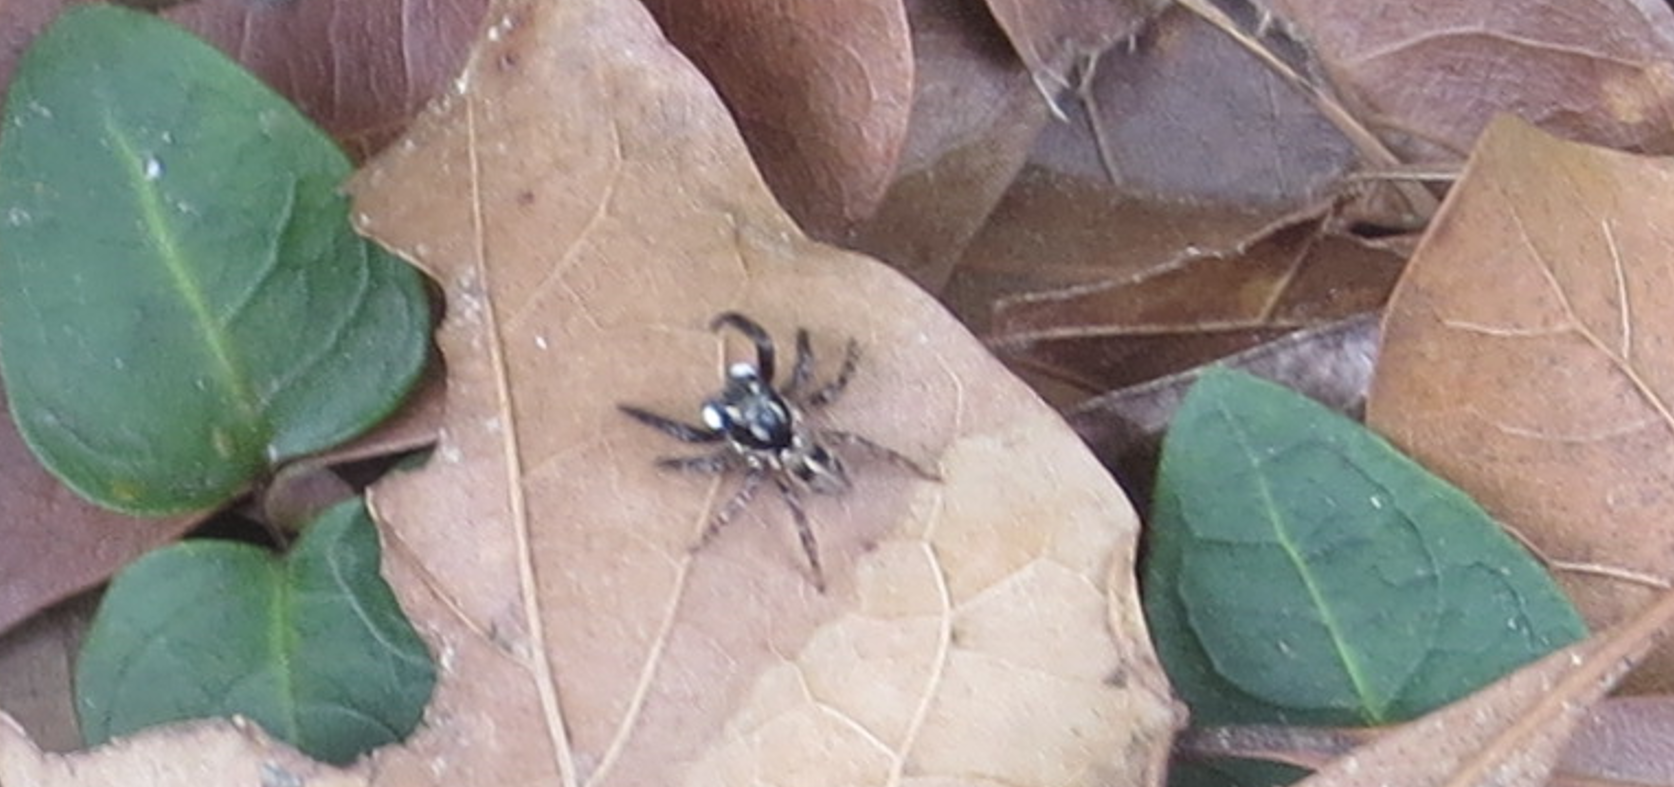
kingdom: Animalia
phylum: Arthropoda
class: Arachnida
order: Araneae
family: Salticidae
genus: Anasaitis
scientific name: Anasaitis canosa
